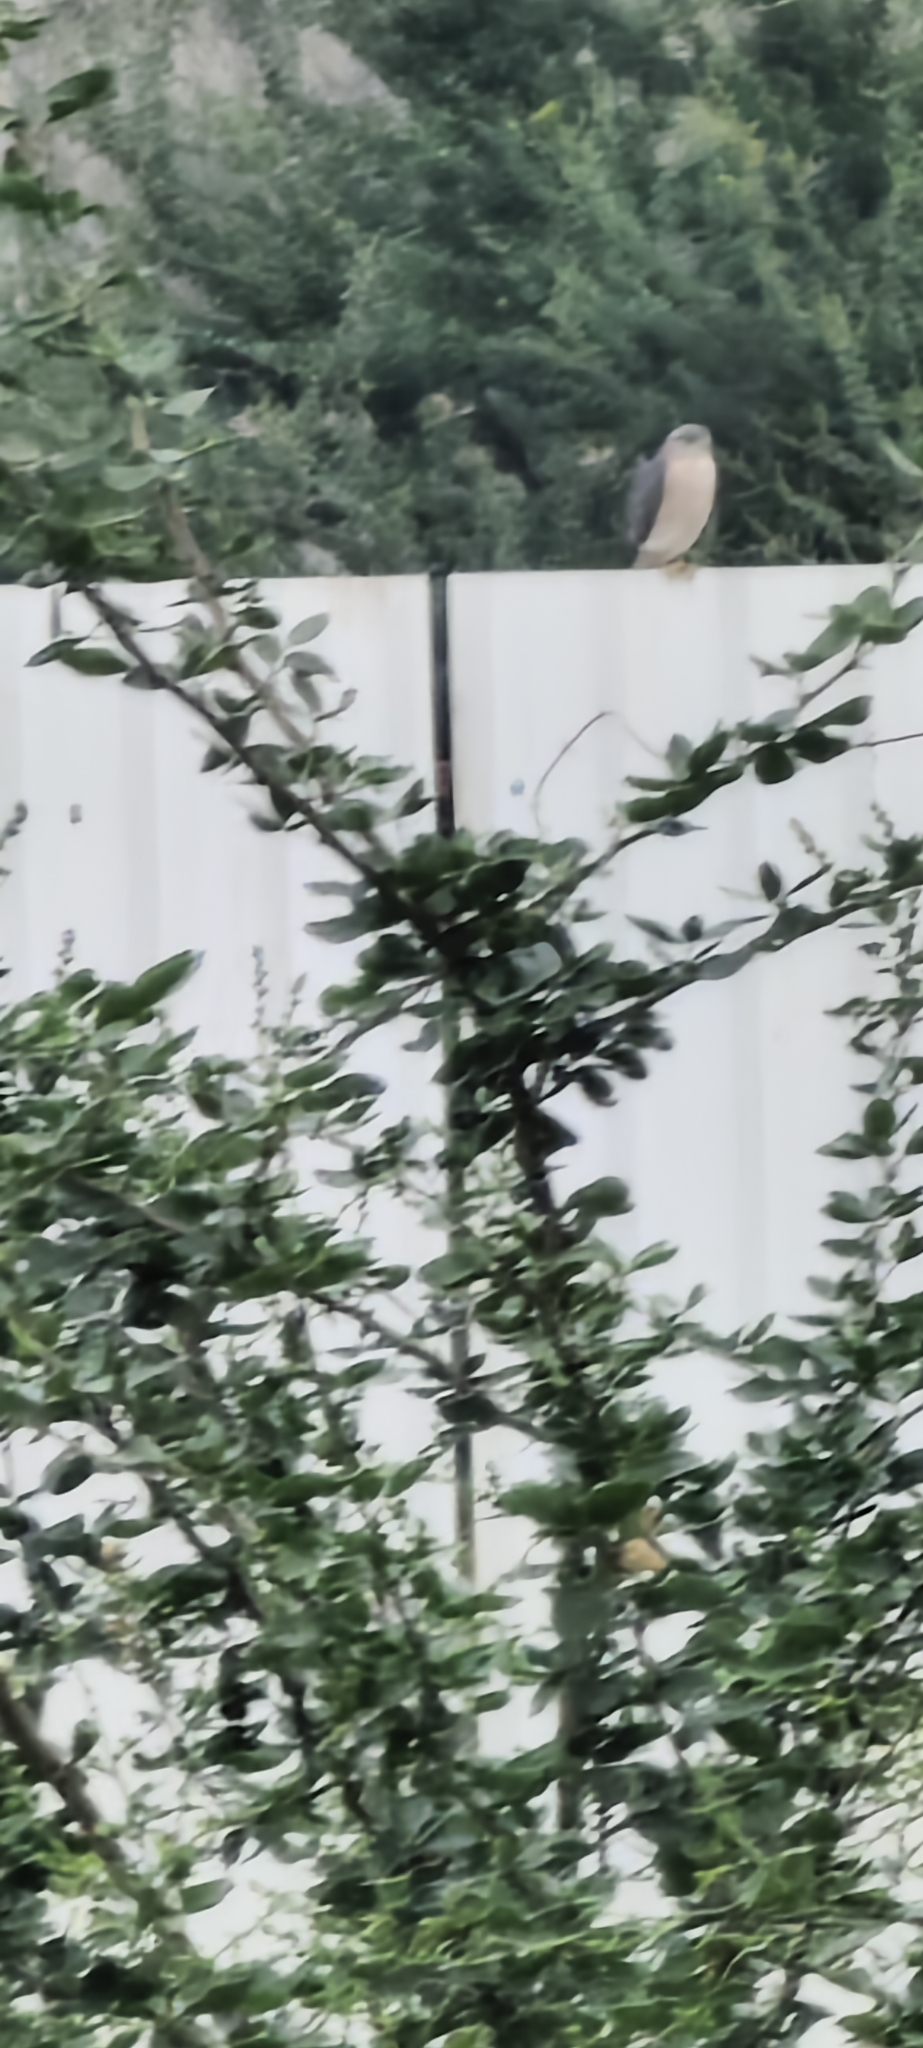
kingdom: Animalia
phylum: Chordata
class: Aves
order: Accipitriformes
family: Accipitridae
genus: Accipiter
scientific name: Accipiter badius
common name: Shikra
